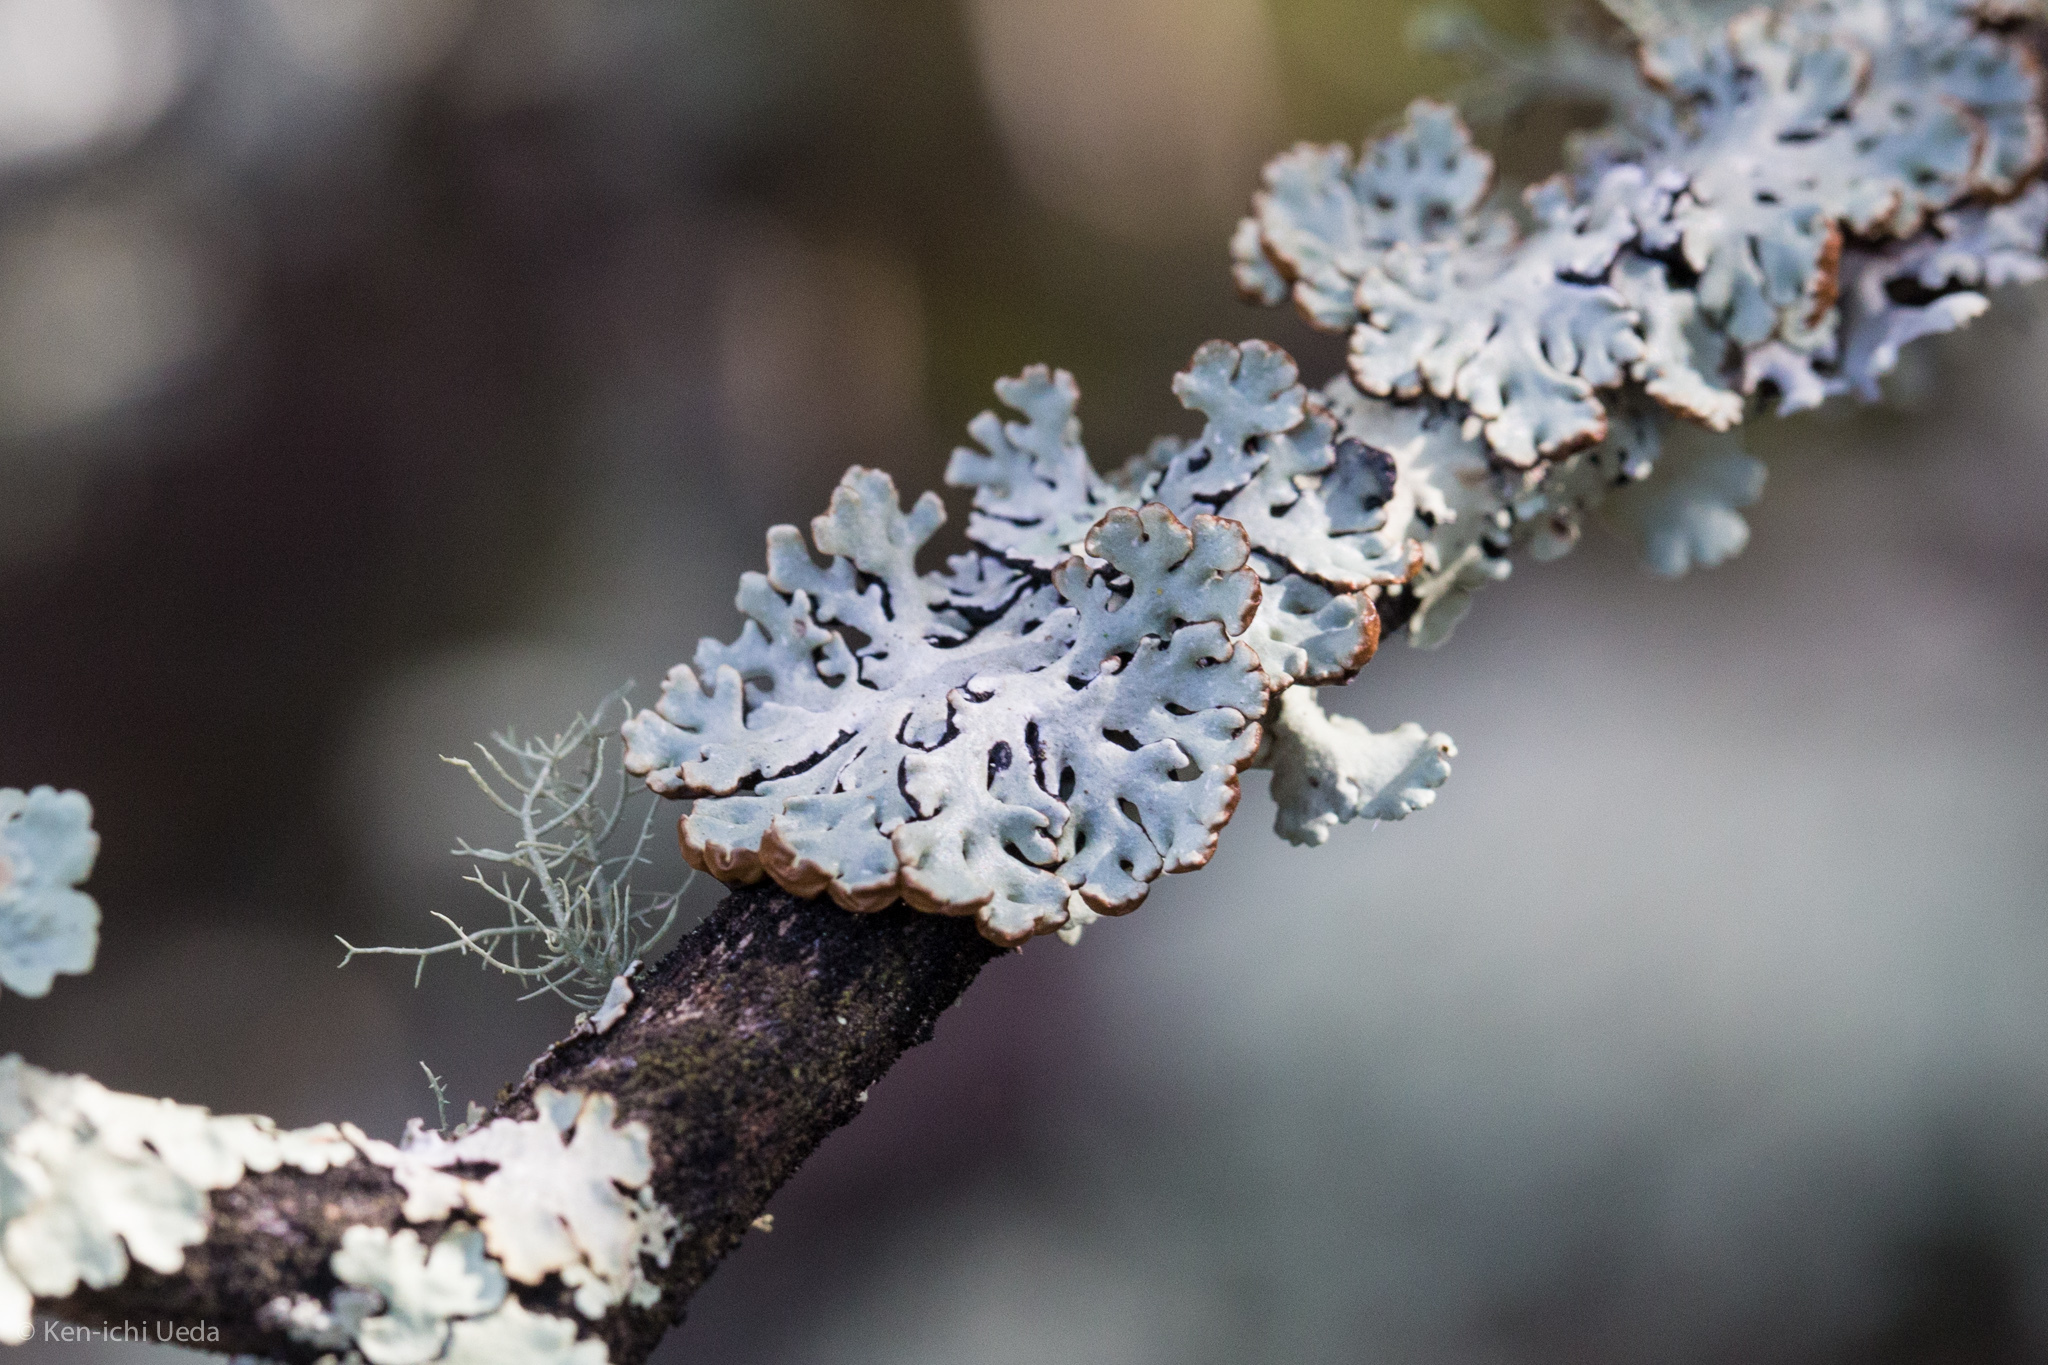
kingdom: Fungi
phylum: Ascomycota
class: Lecanoromycetes
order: Lecanorales
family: Parmeliaceae
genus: Hypogymnia
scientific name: Hypogymnia physodes
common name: Dark crottle
